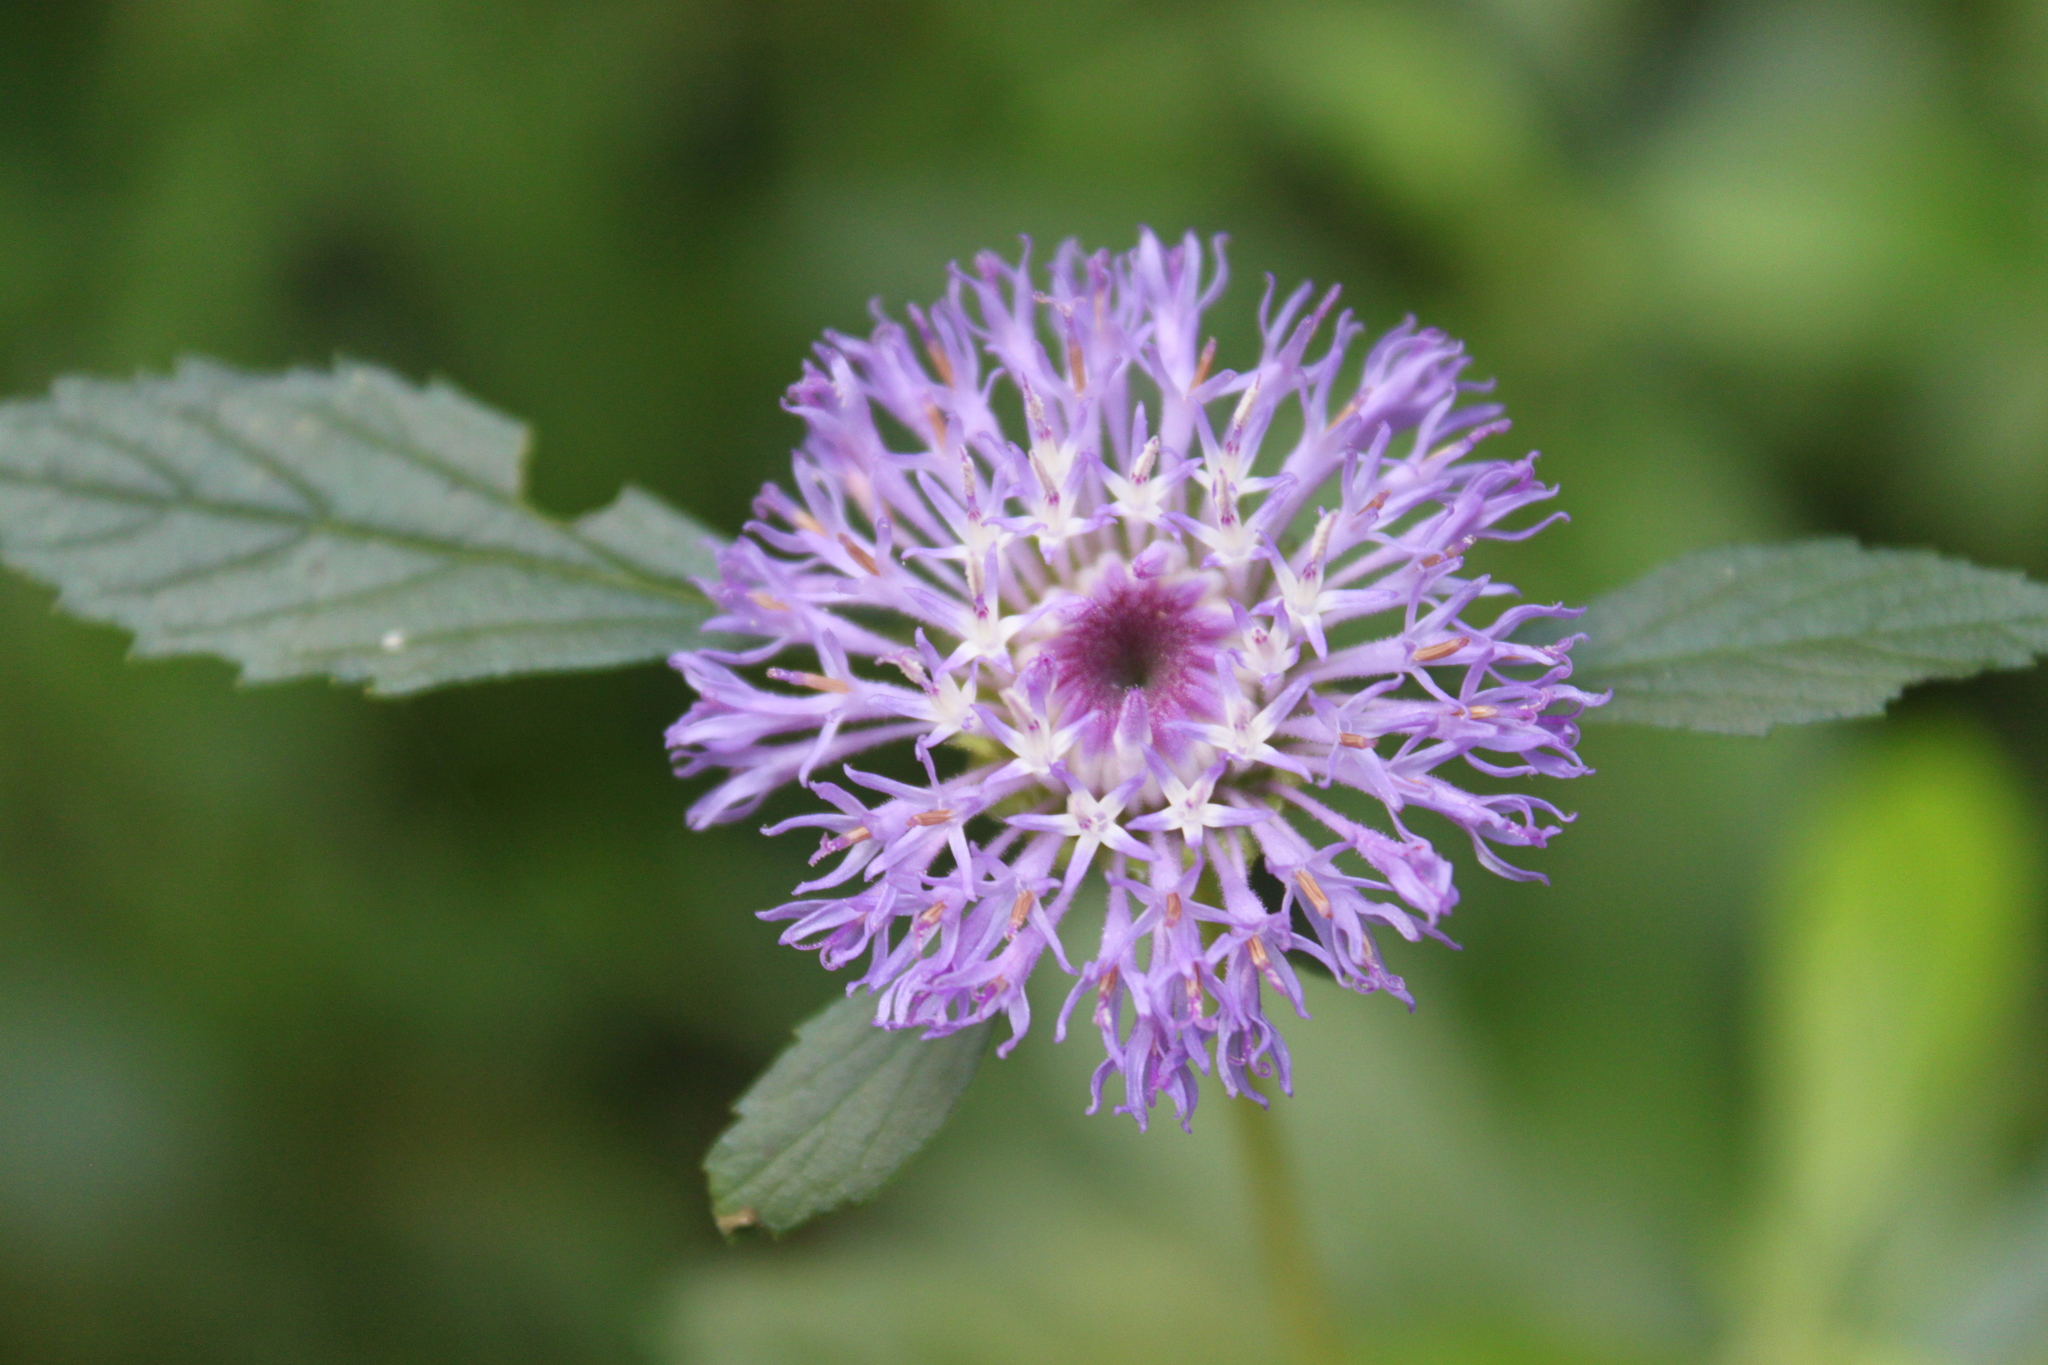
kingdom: Plantae
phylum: Tracheophyta
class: Magnoliopsida
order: Asterales
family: Asteraceae
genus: Centratherum
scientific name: Centratherum punctatum
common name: Larkdaisy
